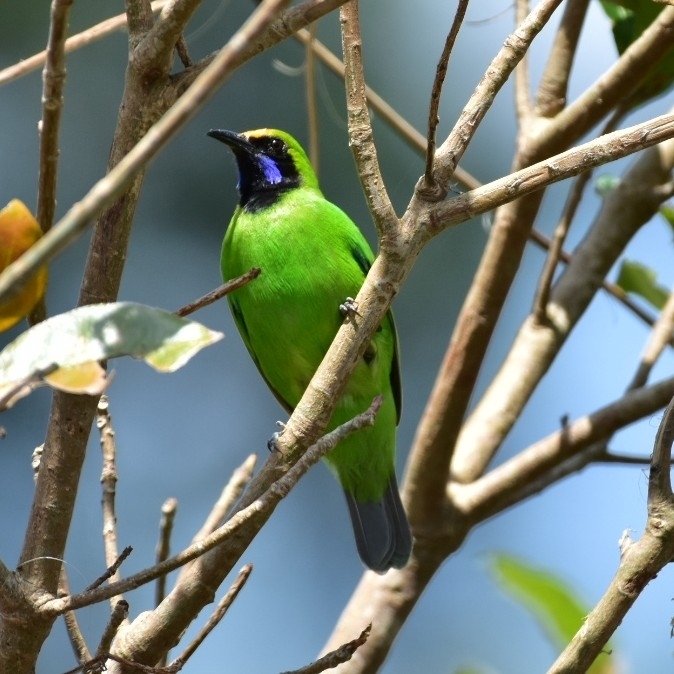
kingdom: Animalia
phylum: Chordata
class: Aves
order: Passeriformes
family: Chloropseidae
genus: Chloropsis
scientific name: Chloropsis aurifrons
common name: Golden-fronted leafbird
